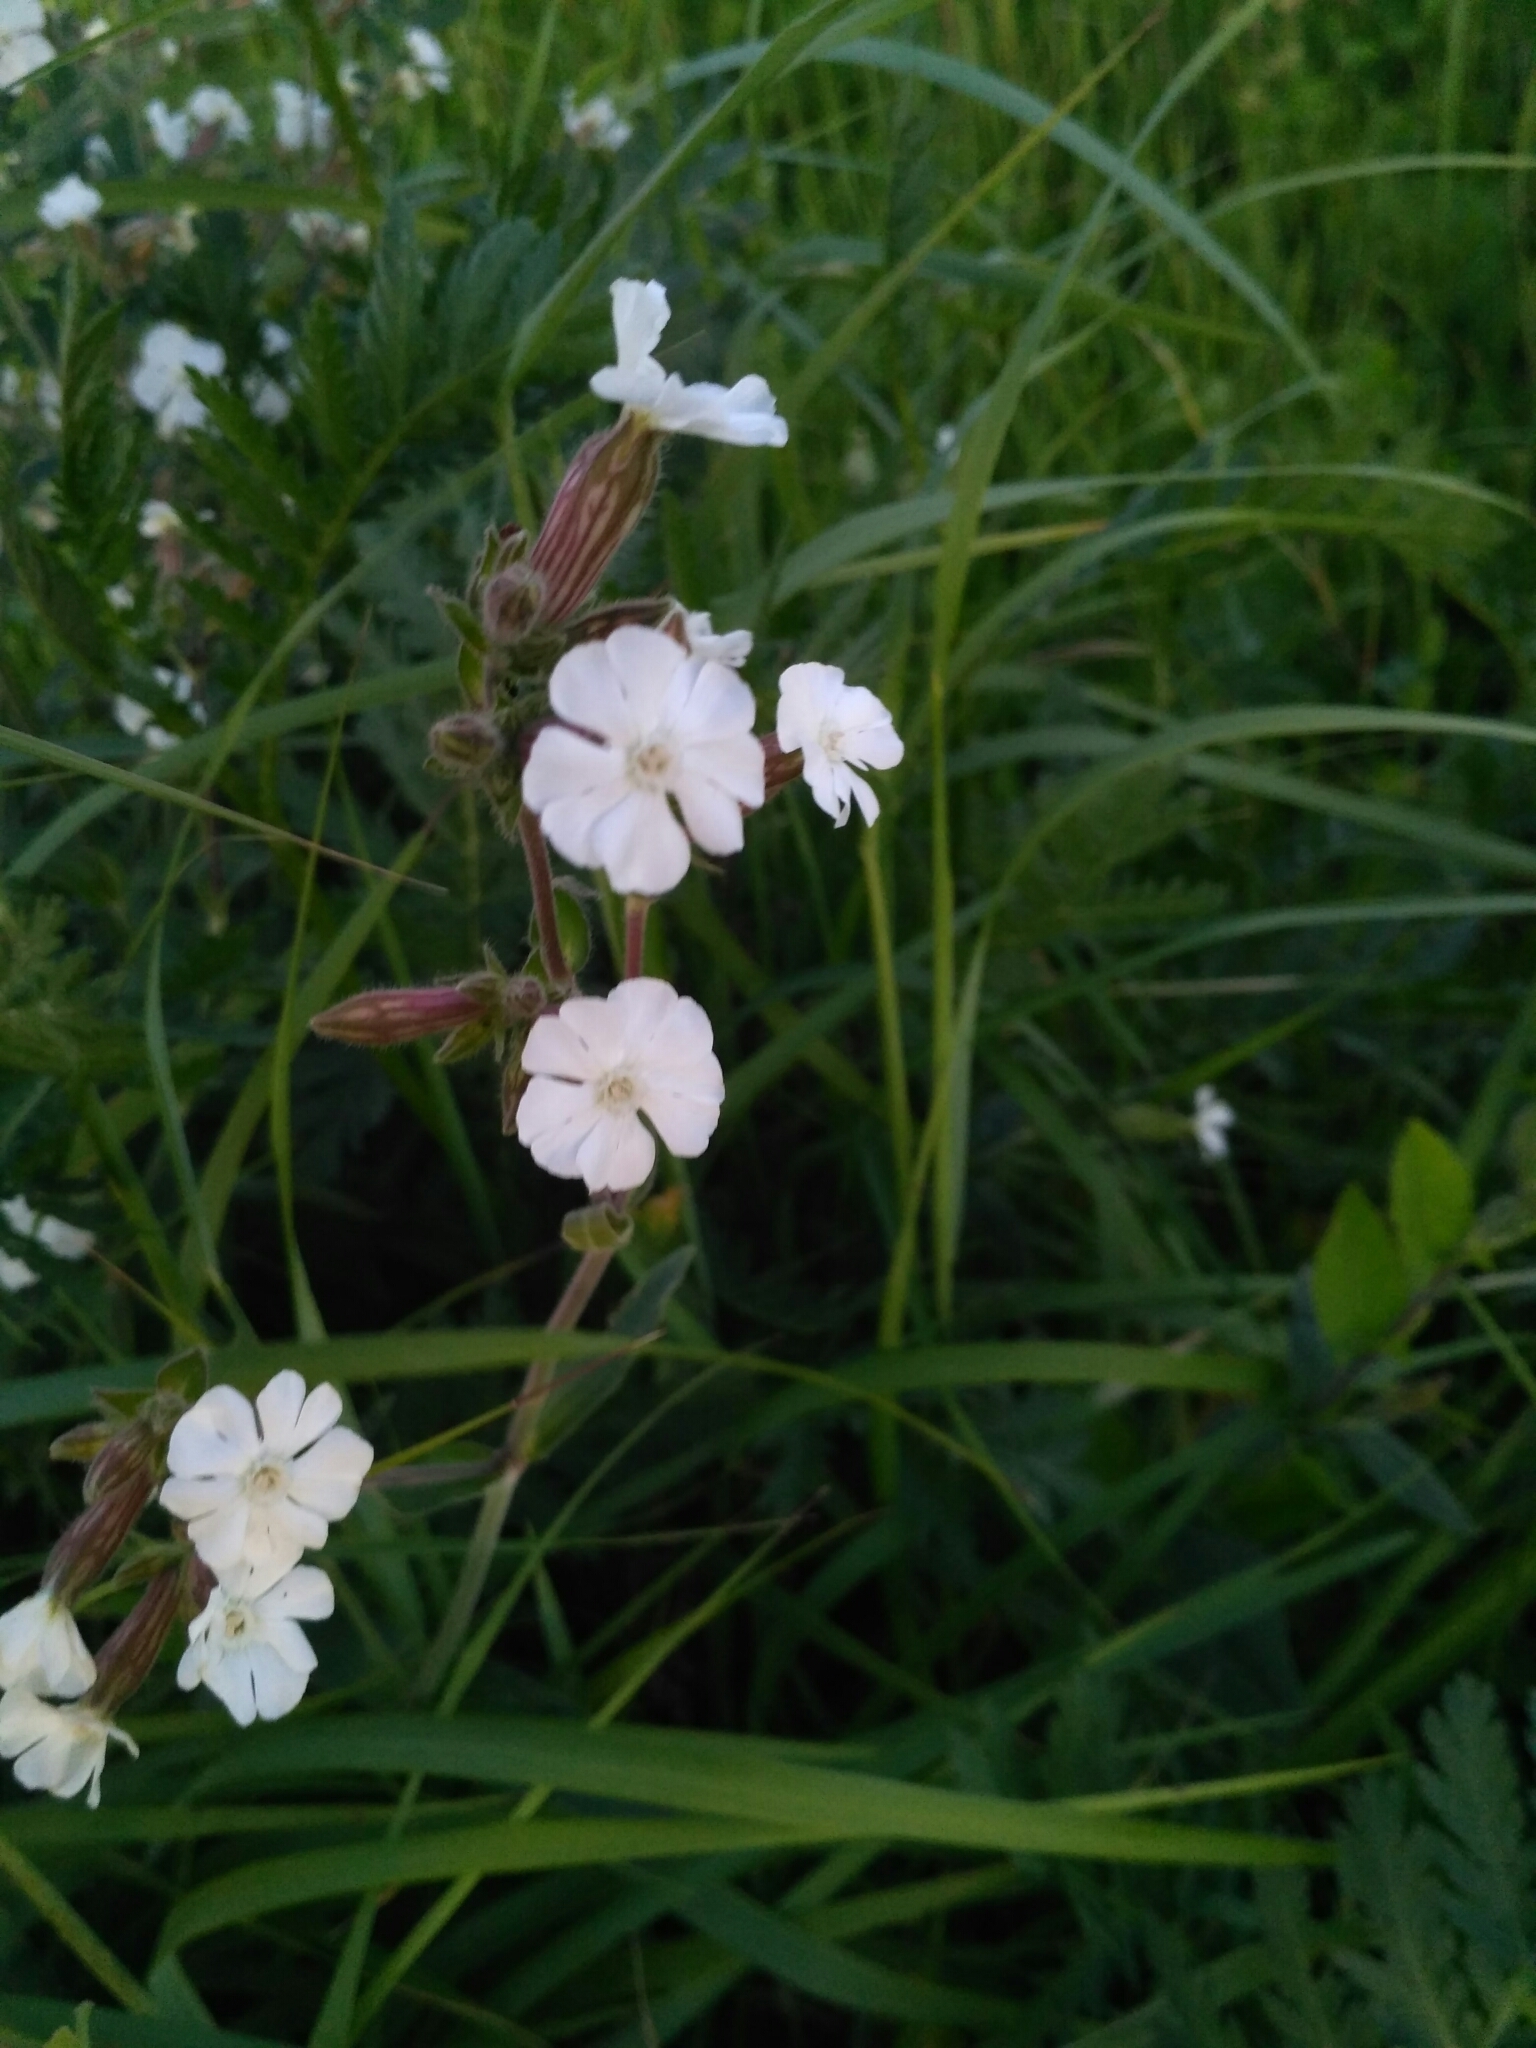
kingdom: Plantae
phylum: Tracheophyta
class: Magnoliopsida
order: Caryophyllales
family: Caryophyllaceae
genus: Silene
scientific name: Silene latifolia
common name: White campion
